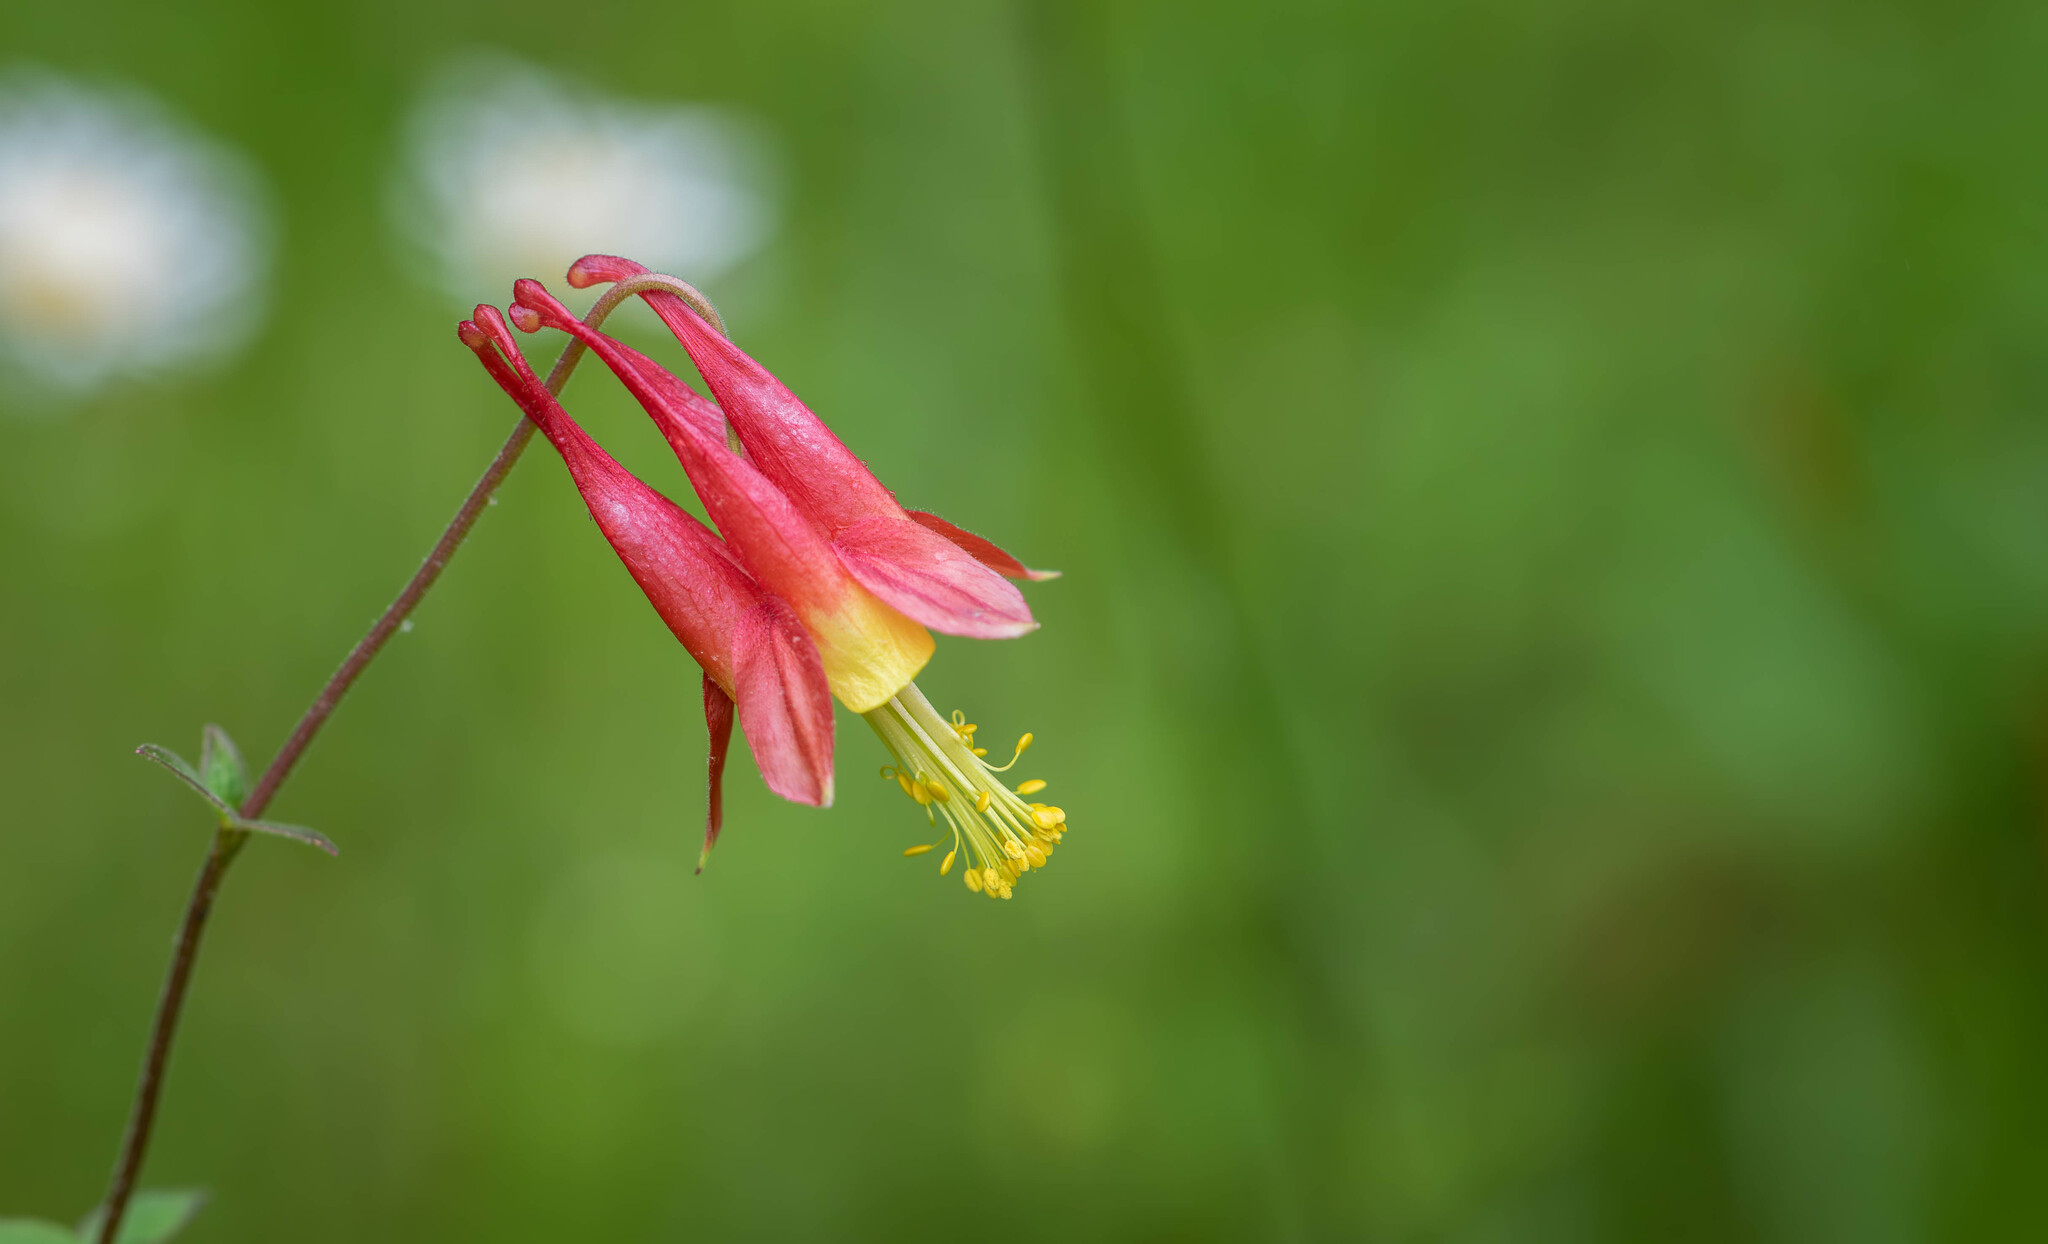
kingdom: Plantae
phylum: Tracheophyta
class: Magnoliopsida
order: Ranunculales
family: Ranunculaceae
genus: Aquilegia
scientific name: Aquilegia canadensis
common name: American columbine
